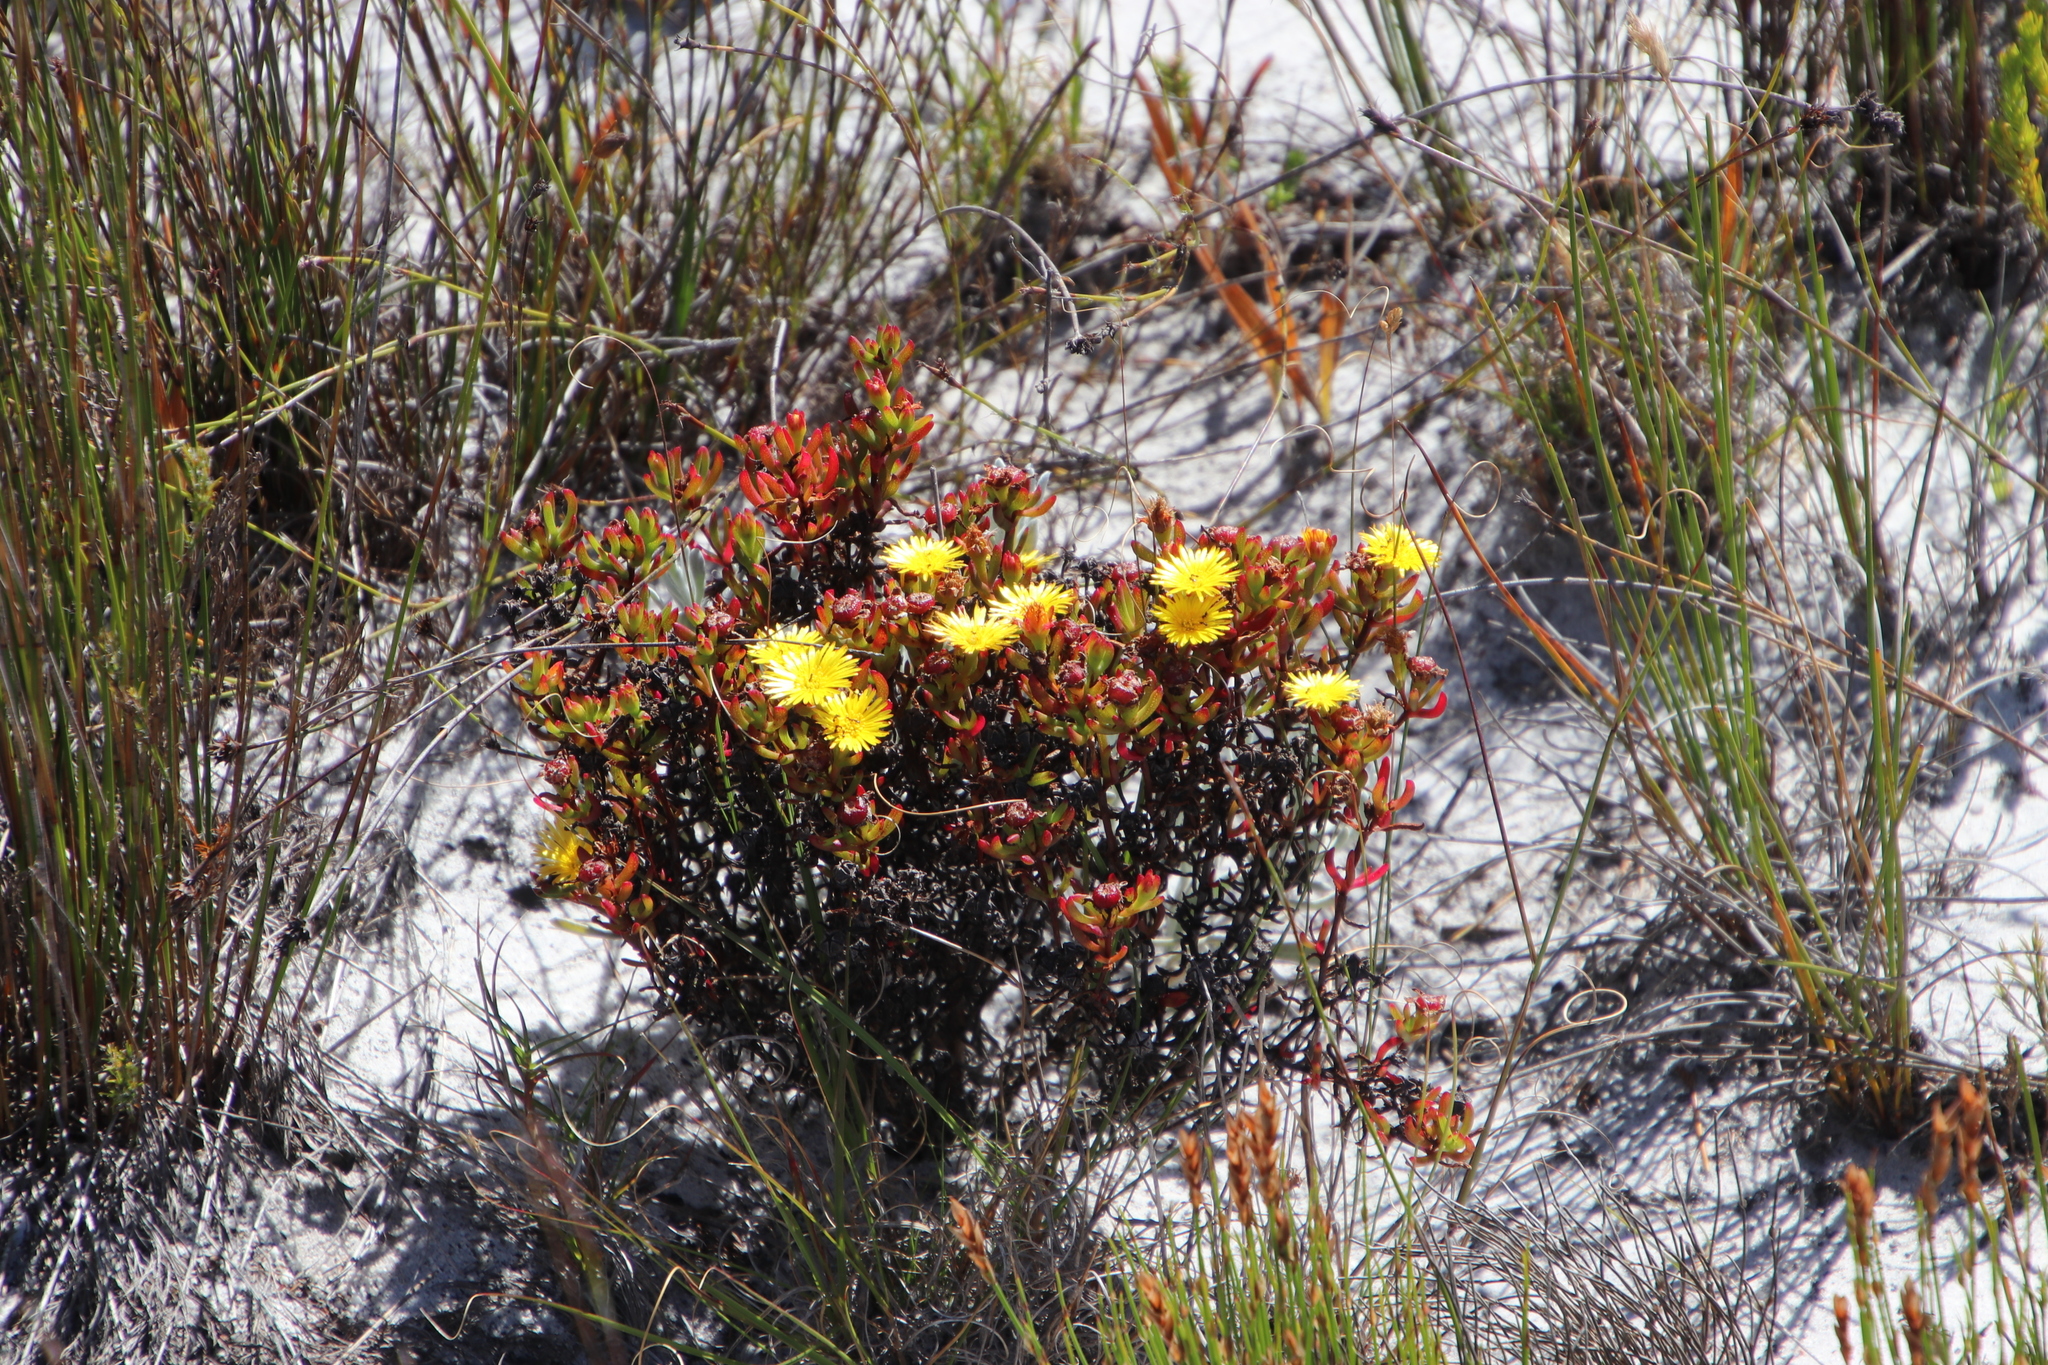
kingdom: Plantae
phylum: Tracheophyta
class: Magnoliopsida
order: Caryophyllales
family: Aizoaceae
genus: Lampranthus
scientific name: Lampranthus promontorii
